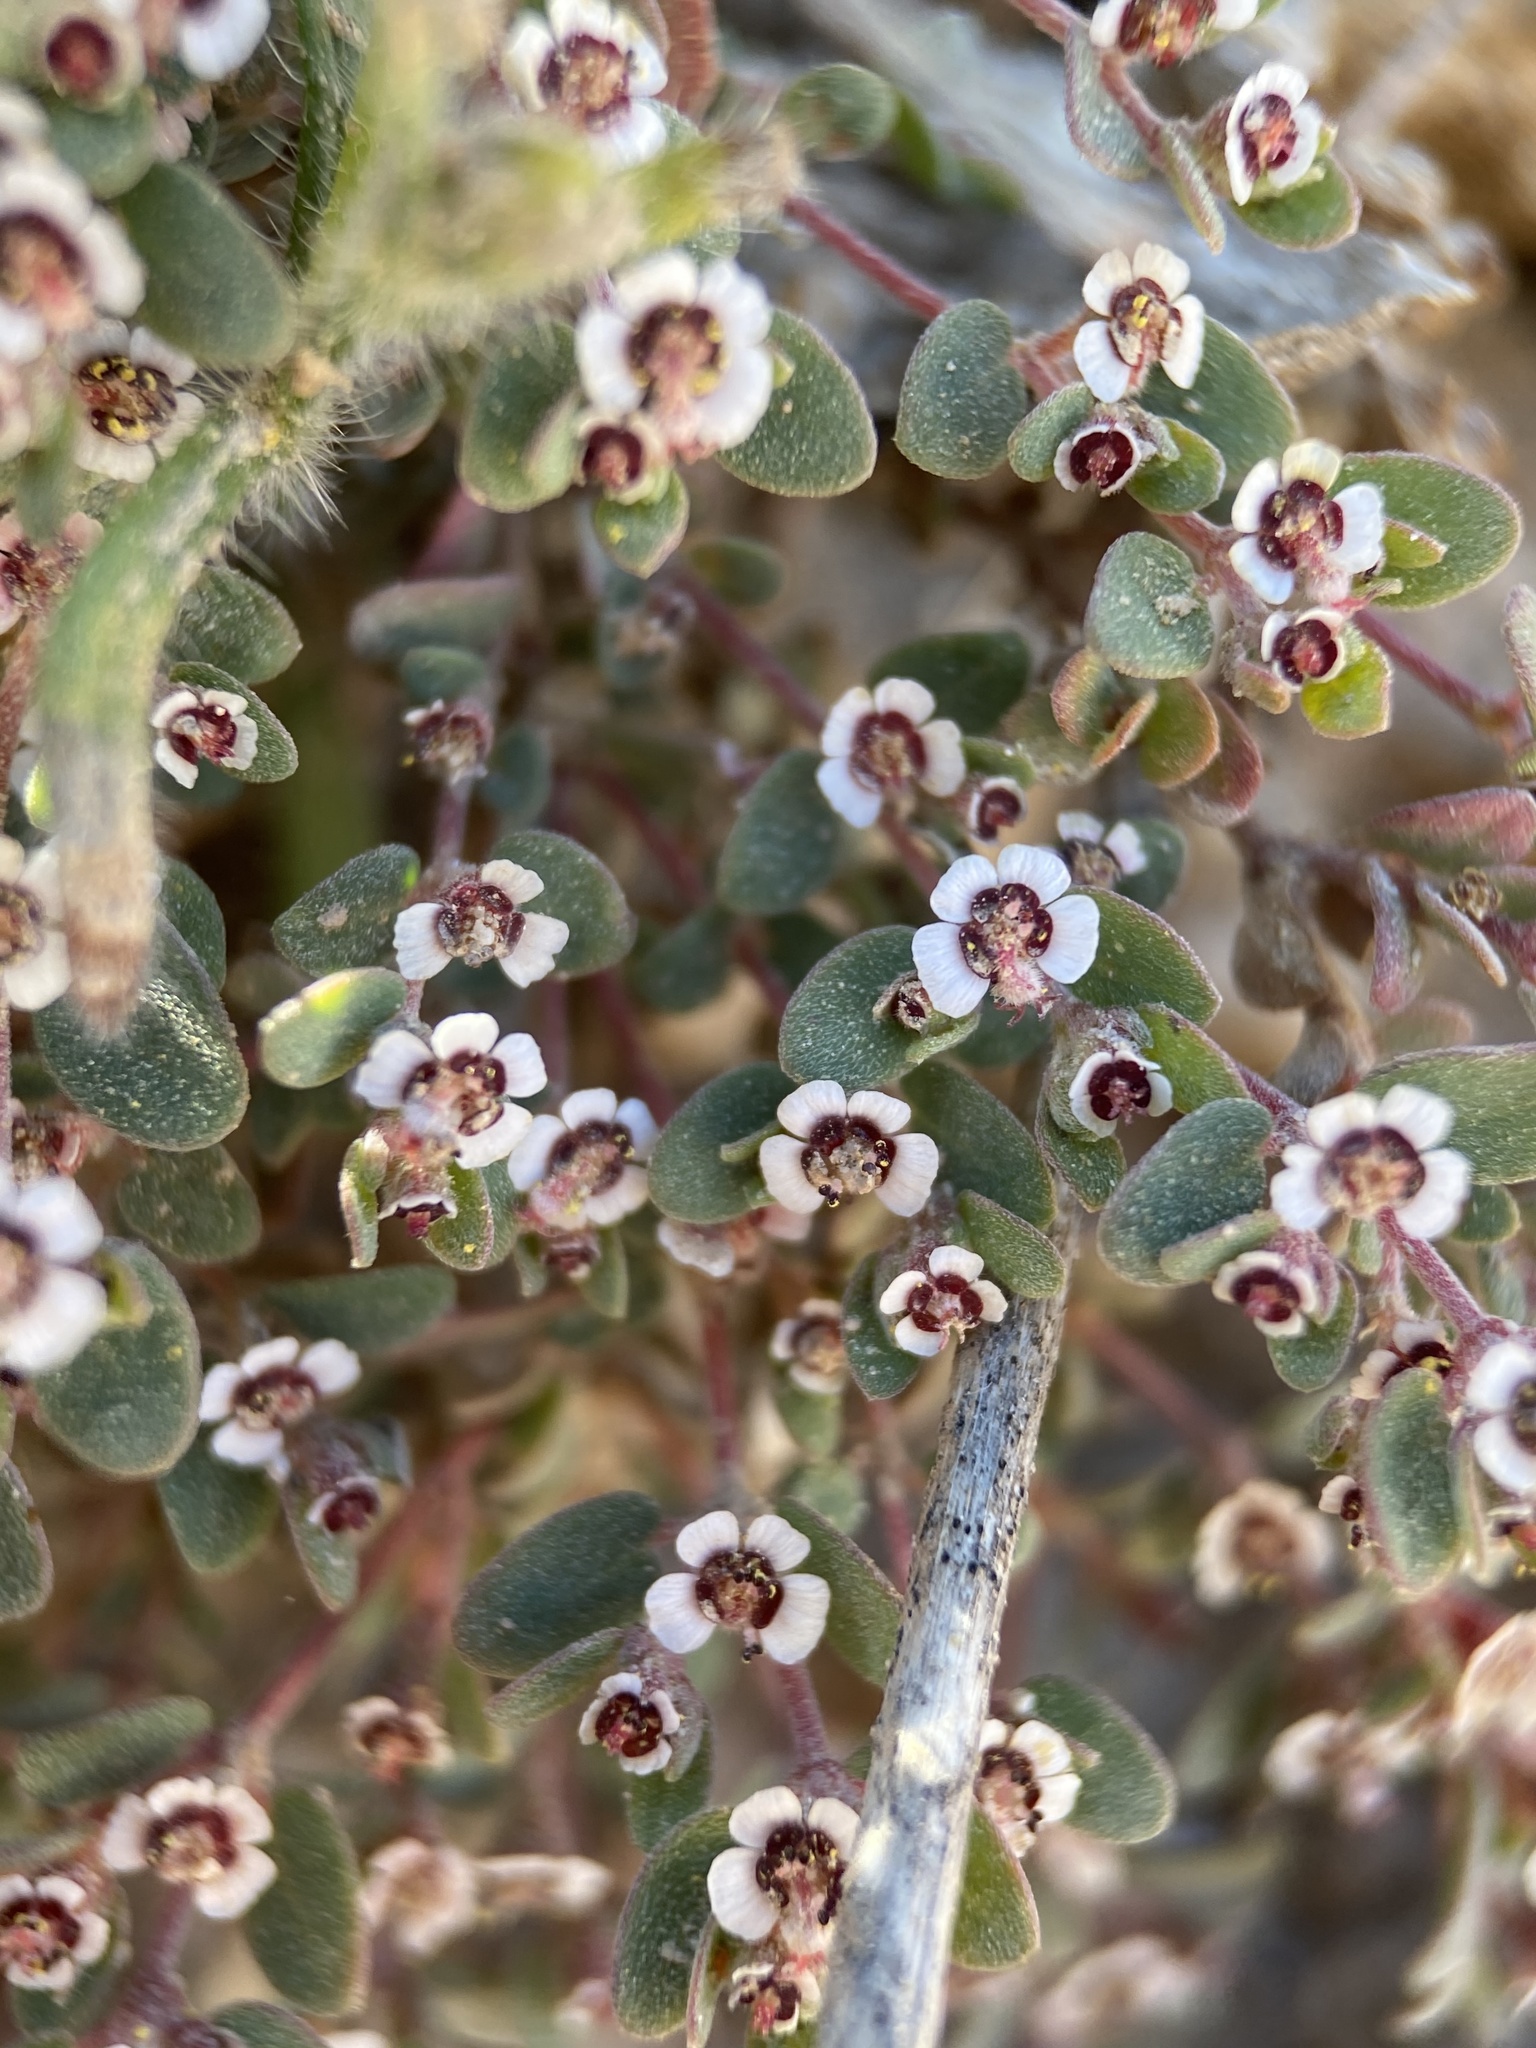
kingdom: Plantae
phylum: Tracheophyta
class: Magnoliopsida
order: Malpighiales
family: Euphorbiaceae
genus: Euphorbia
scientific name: Euphorbia melanadenia
